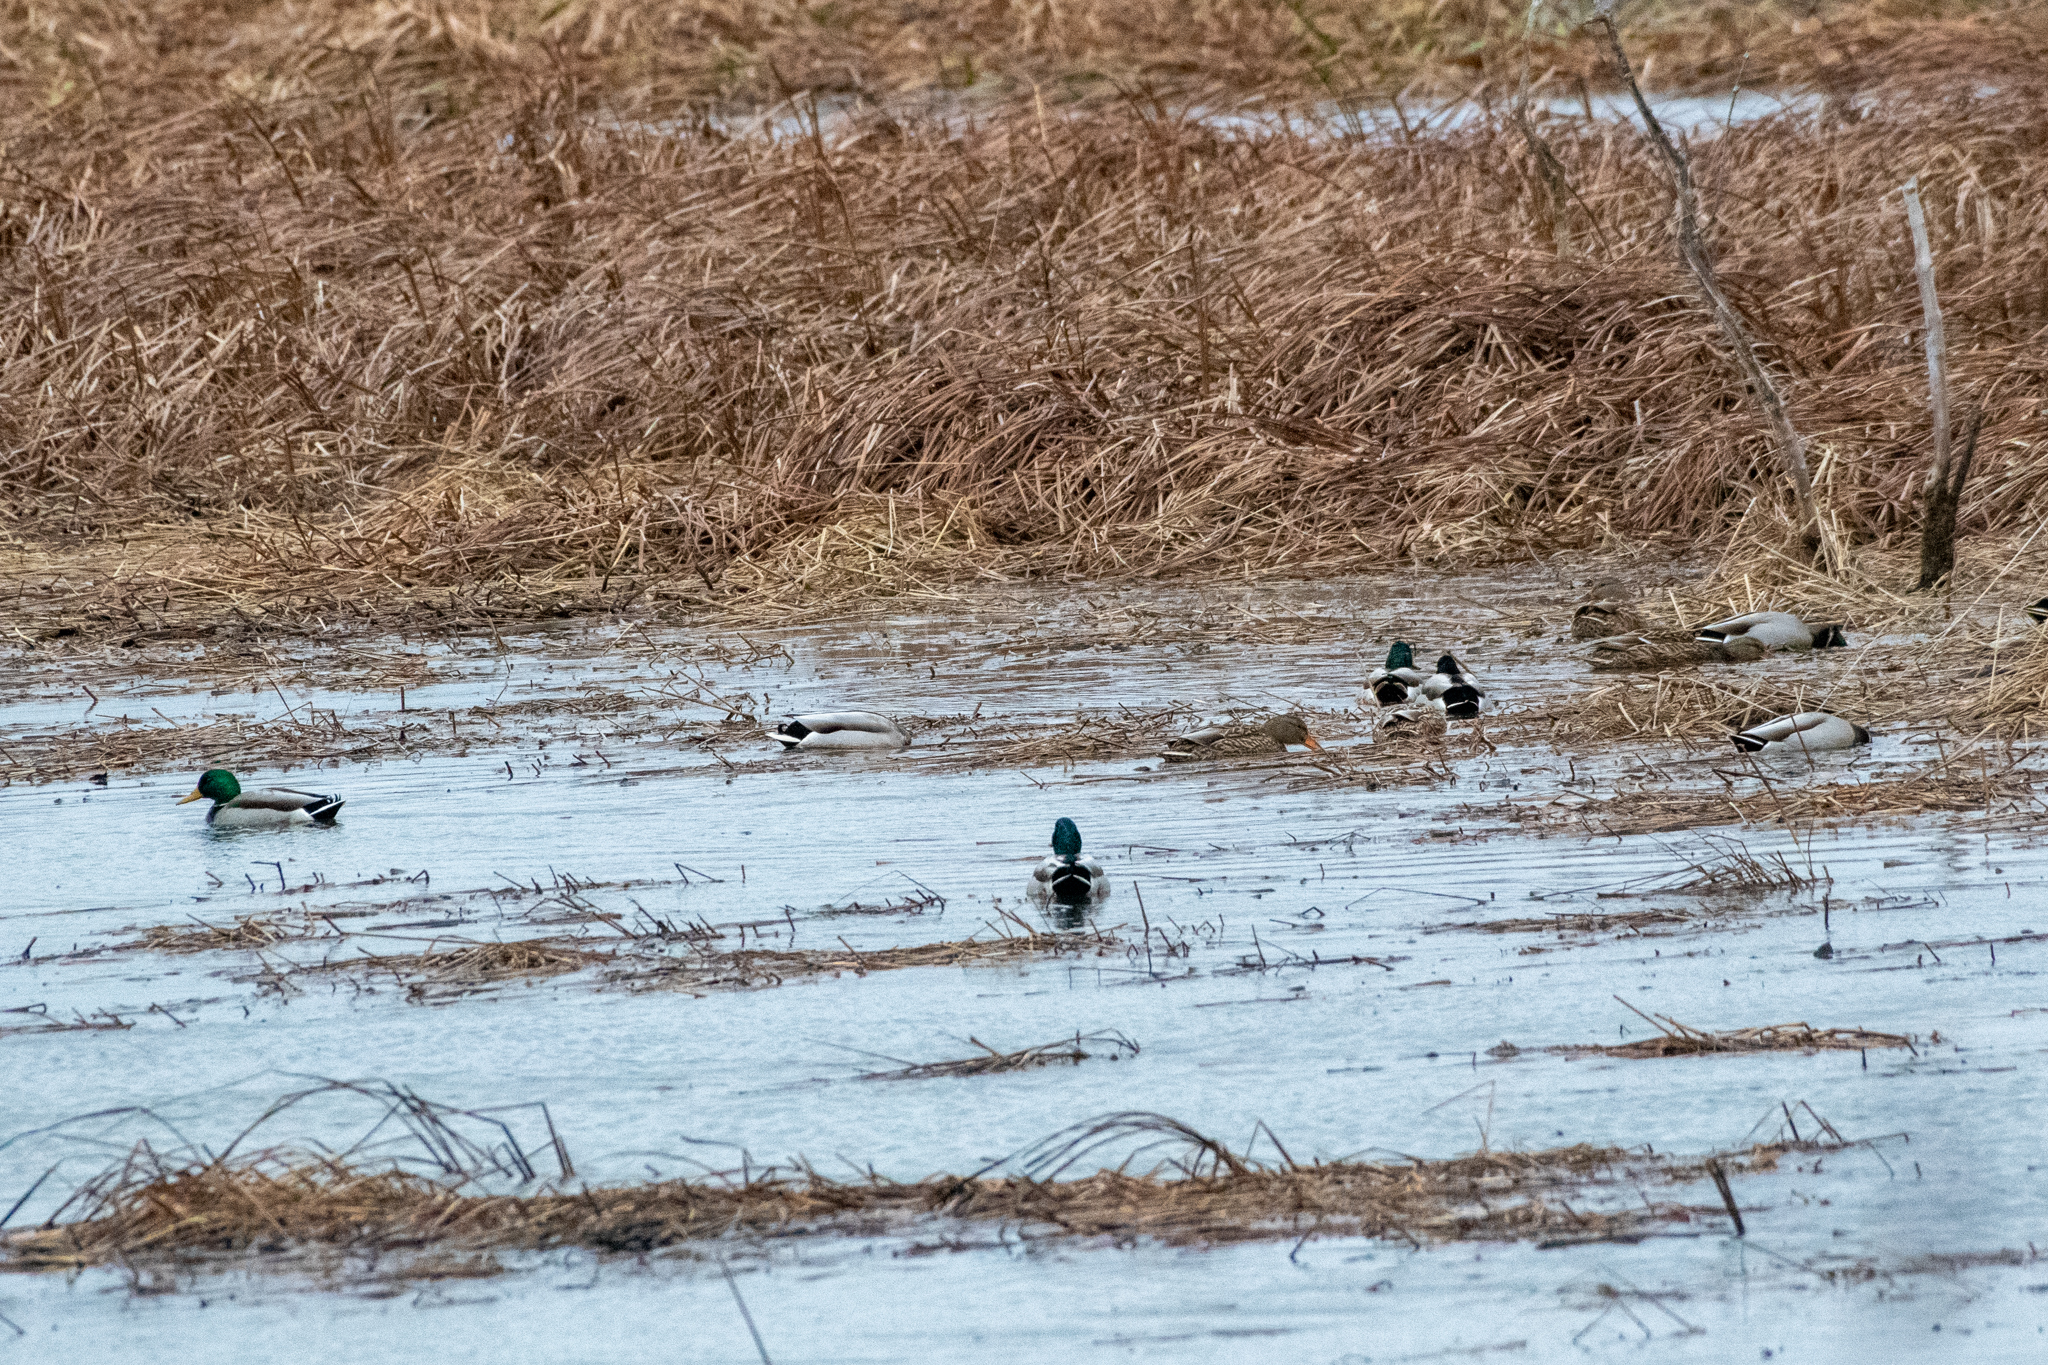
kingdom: Animalia
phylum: Chordata
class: Aves
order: Anseriformes
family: Anatidae
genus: Anas
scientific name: Anas platyrhynchos
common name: Mallard
